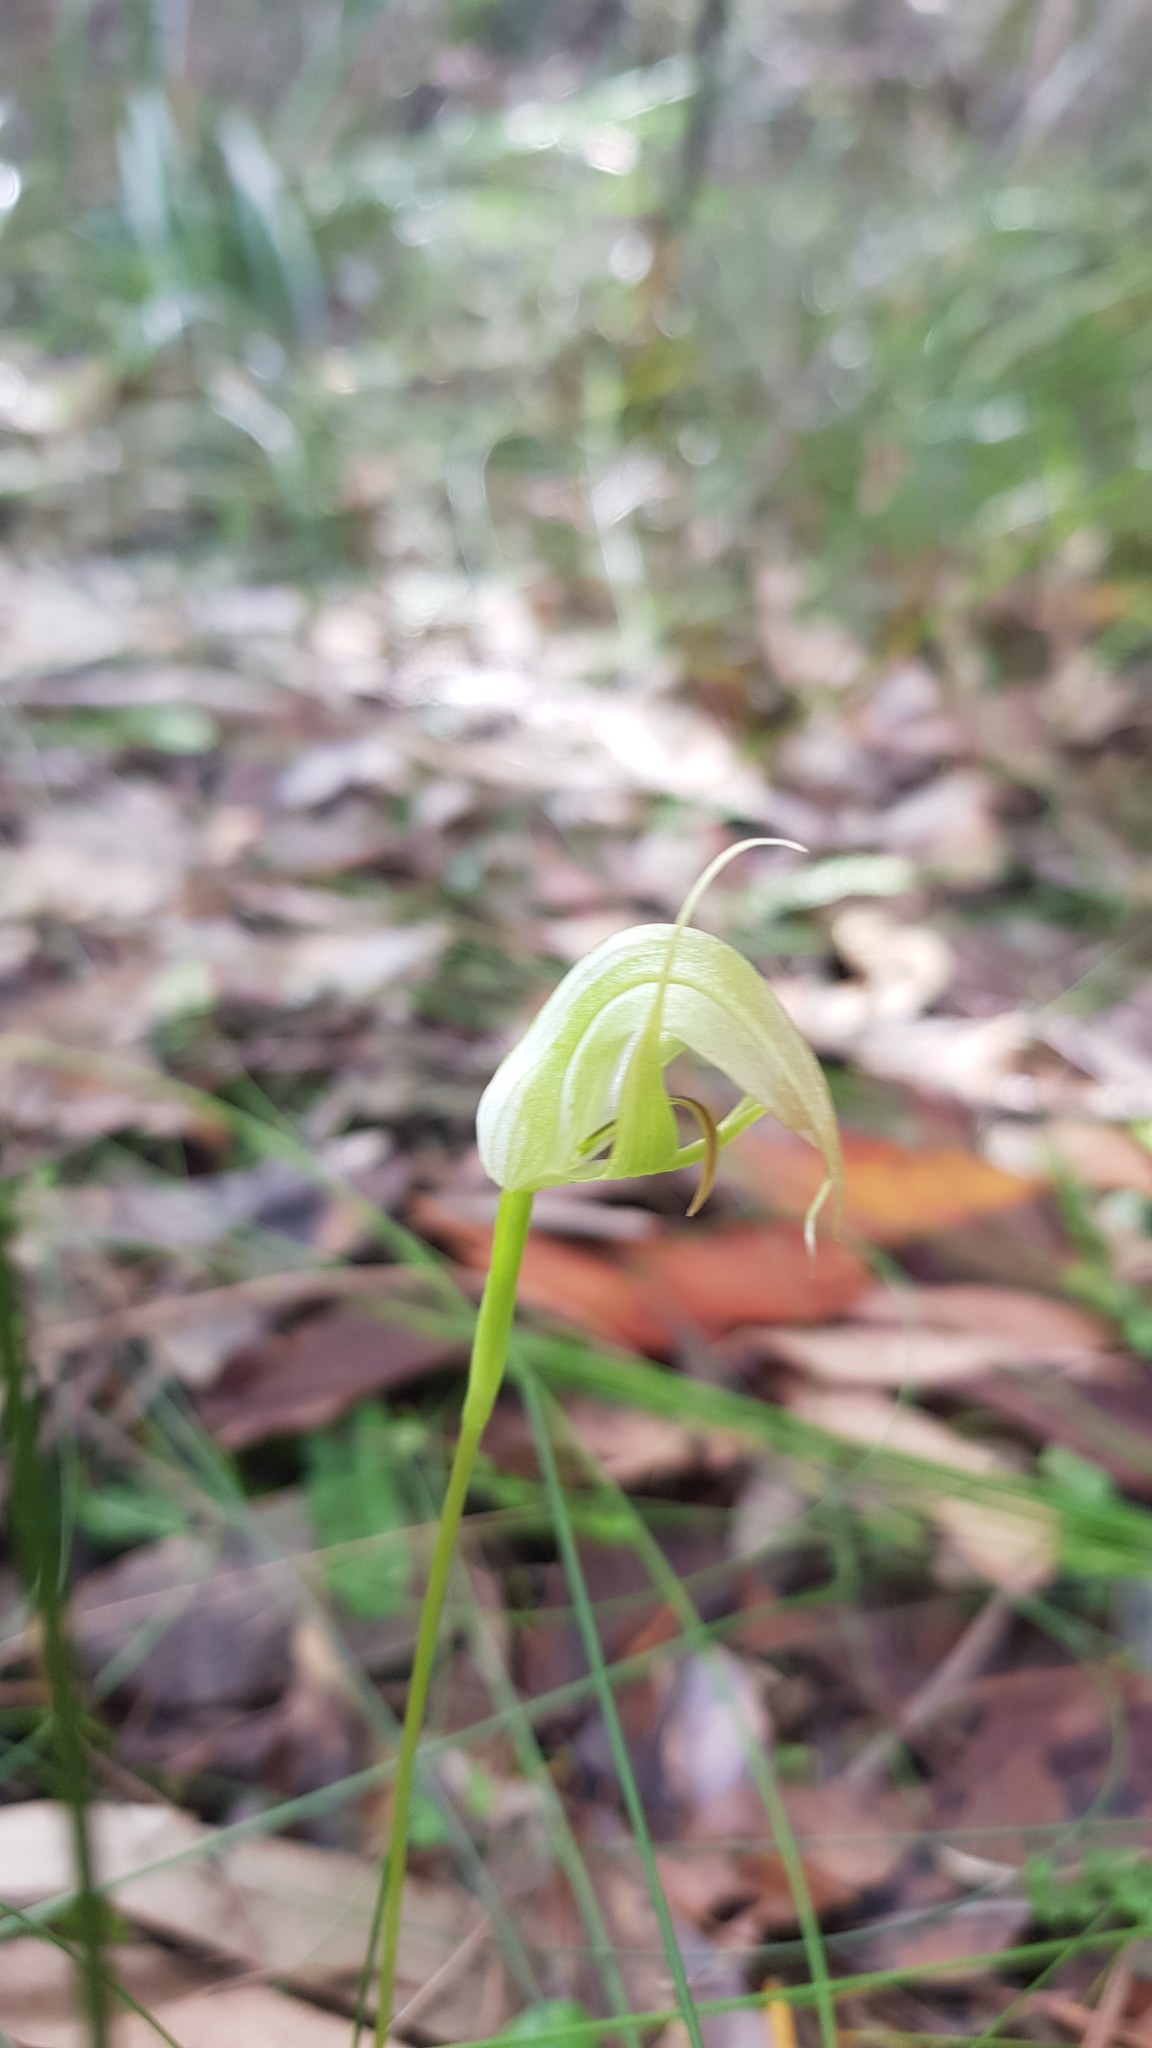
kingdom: Plantae
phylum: Tracheophyta
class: Liliopsida
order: Asparagales
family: Orchidaceae
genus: Pterostylis
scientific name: Pterostylis acuminata
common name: Pointed greenhood
